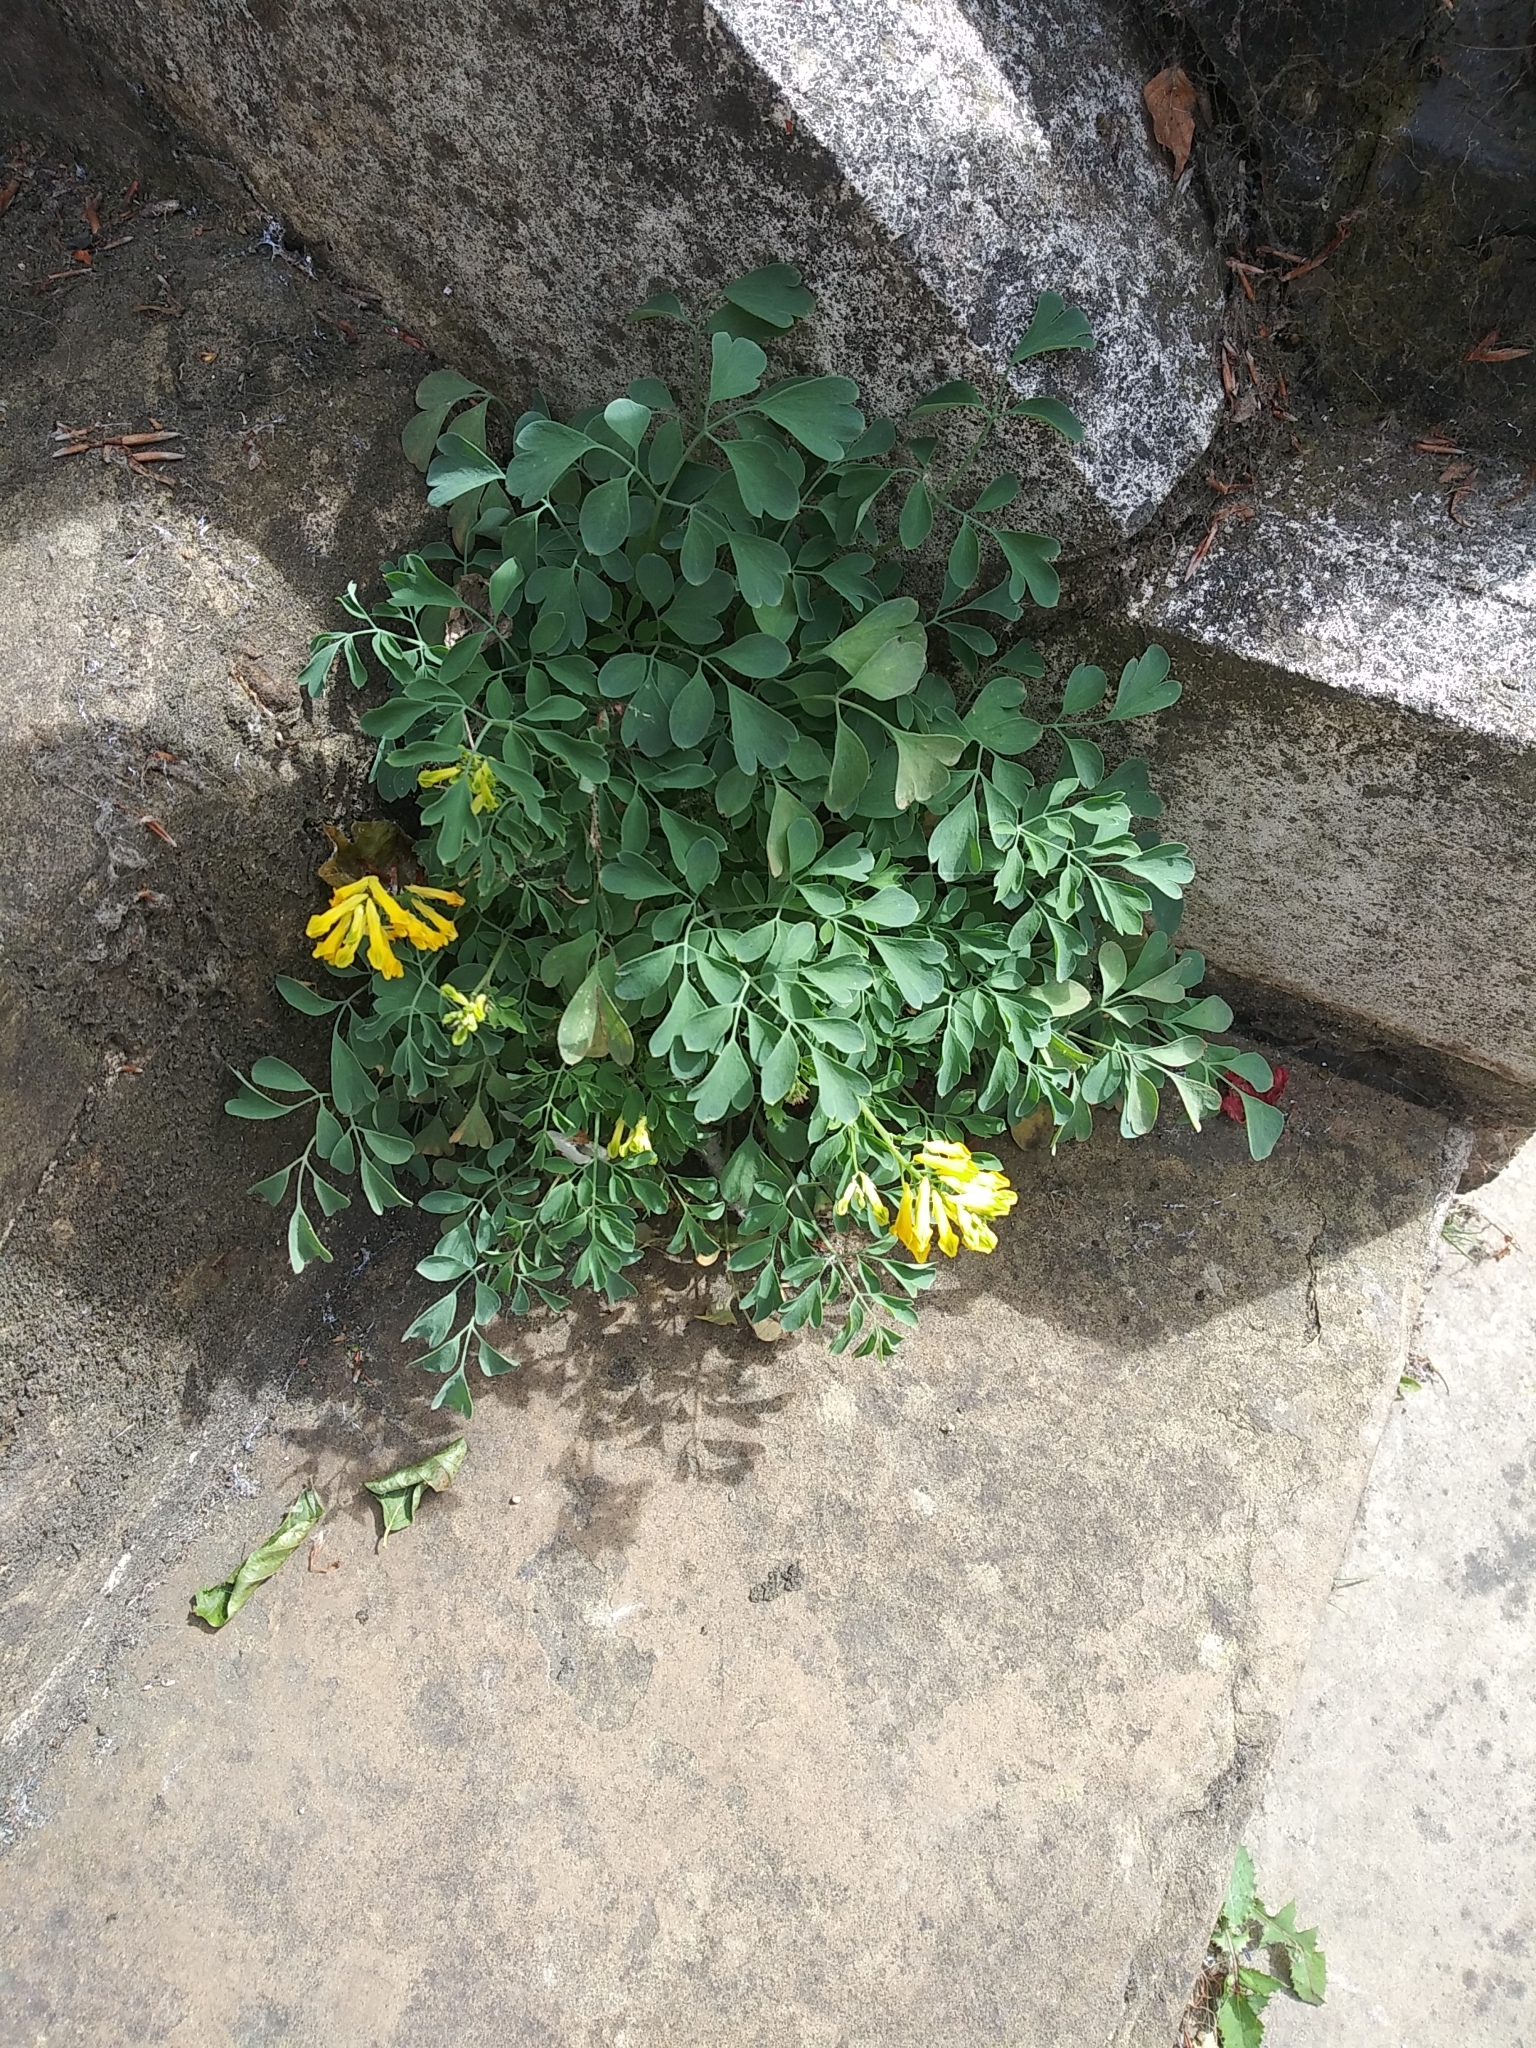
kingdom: Plantae
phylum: Tracheophyta
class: Magnoliopsida
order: Ranunculales
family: Papaveraceae
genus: Pseudofumaria
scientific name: Pseudofumaria lutea
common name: Yellow corydalis
